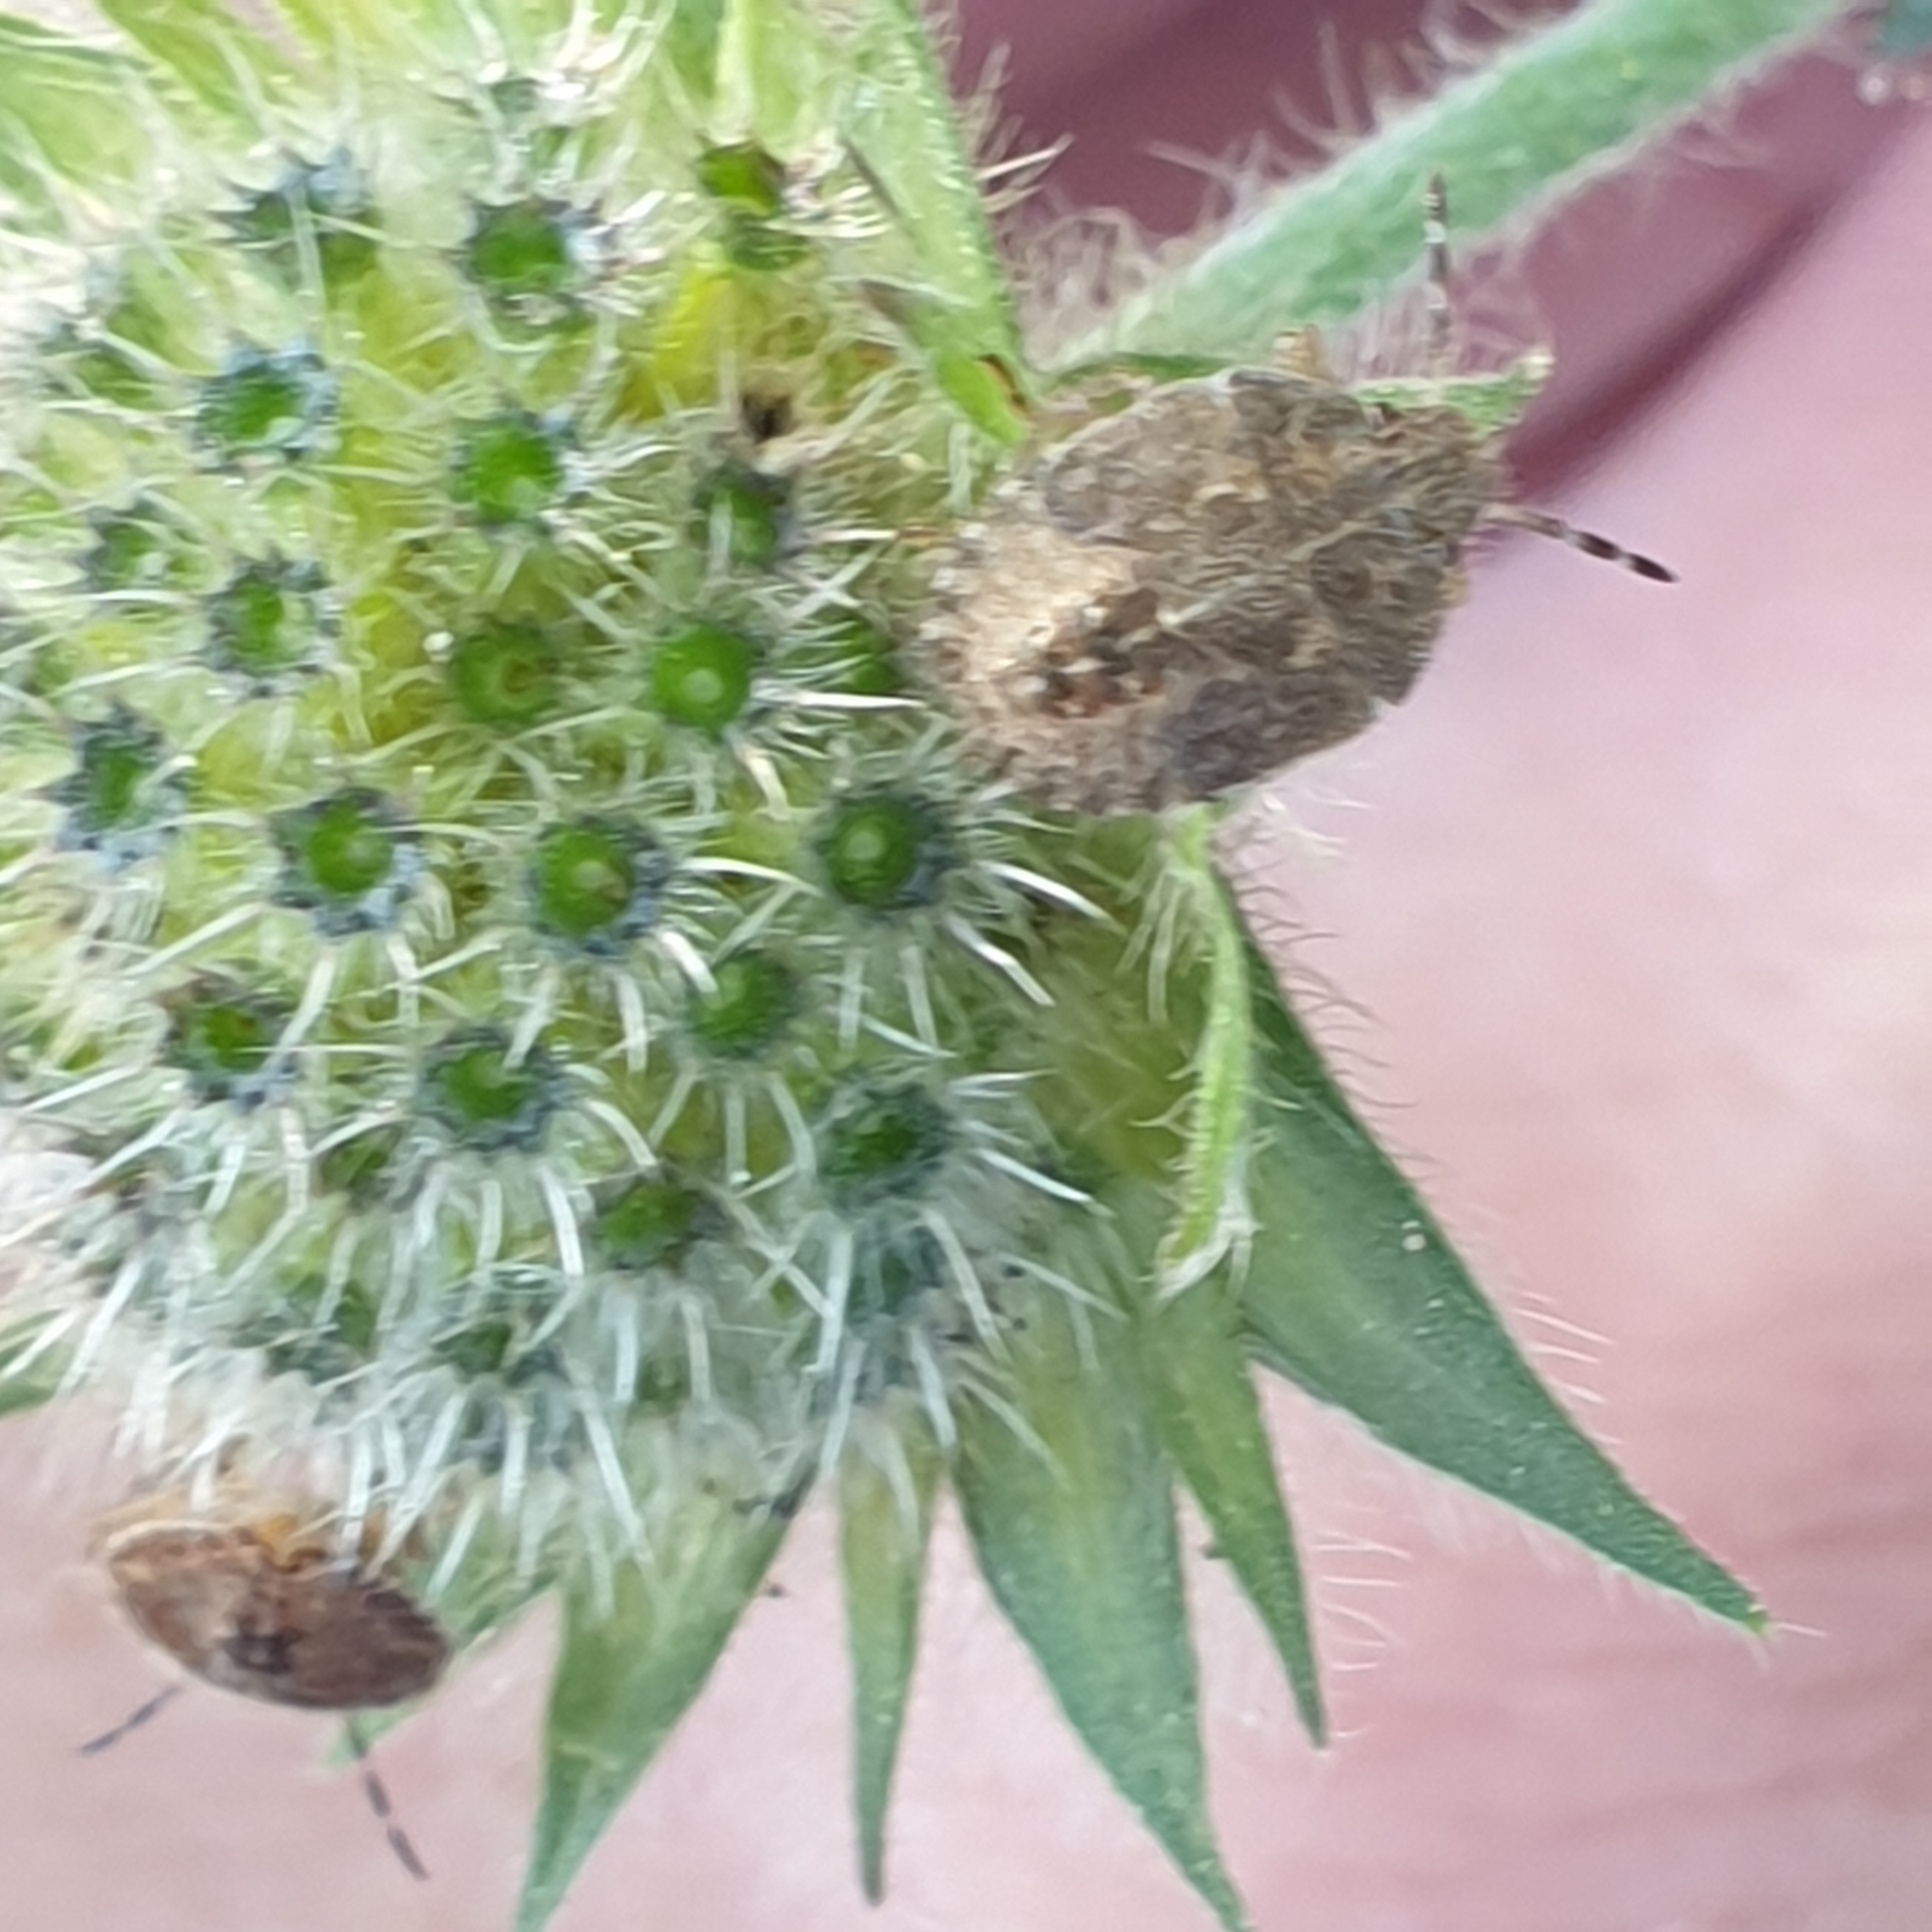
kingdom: Animalia
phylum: Arthropoda
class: Insecta
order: Hemiptera
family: Pentatomidae
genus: Dolycoris
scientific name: Dolycoris baccarum
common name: Sloe bug
